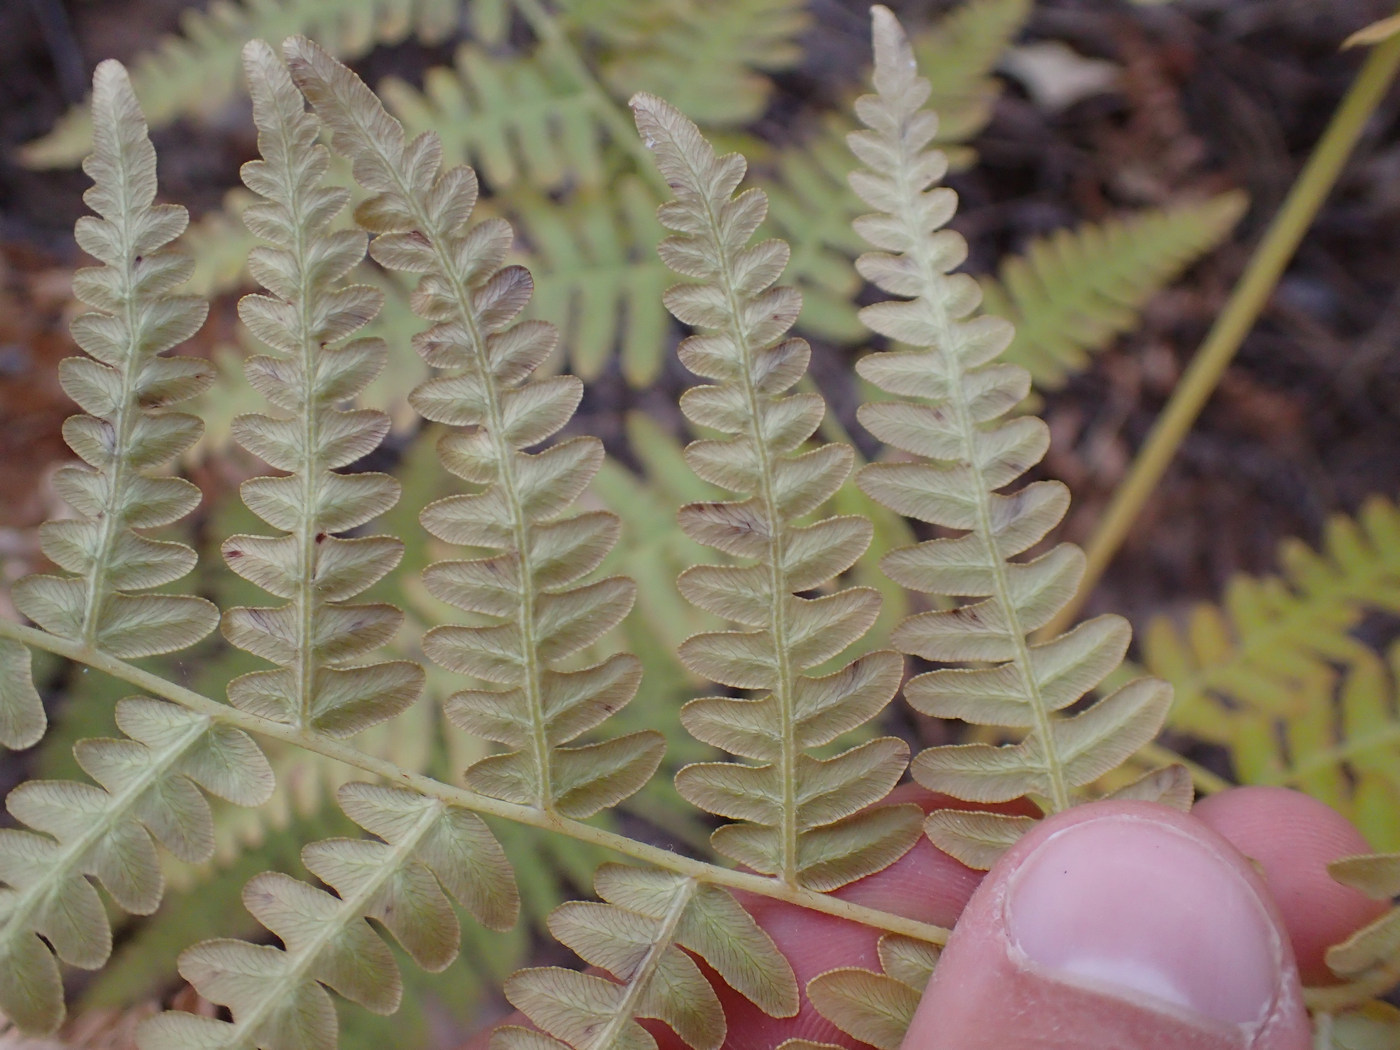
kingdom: Plantae
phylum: Tracheophyta
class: Polypodiopsida
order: Polypodiales
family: Dennstaedtiaceae
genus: Pteridium
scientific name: Pteridium aquilinum
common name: Bracken
